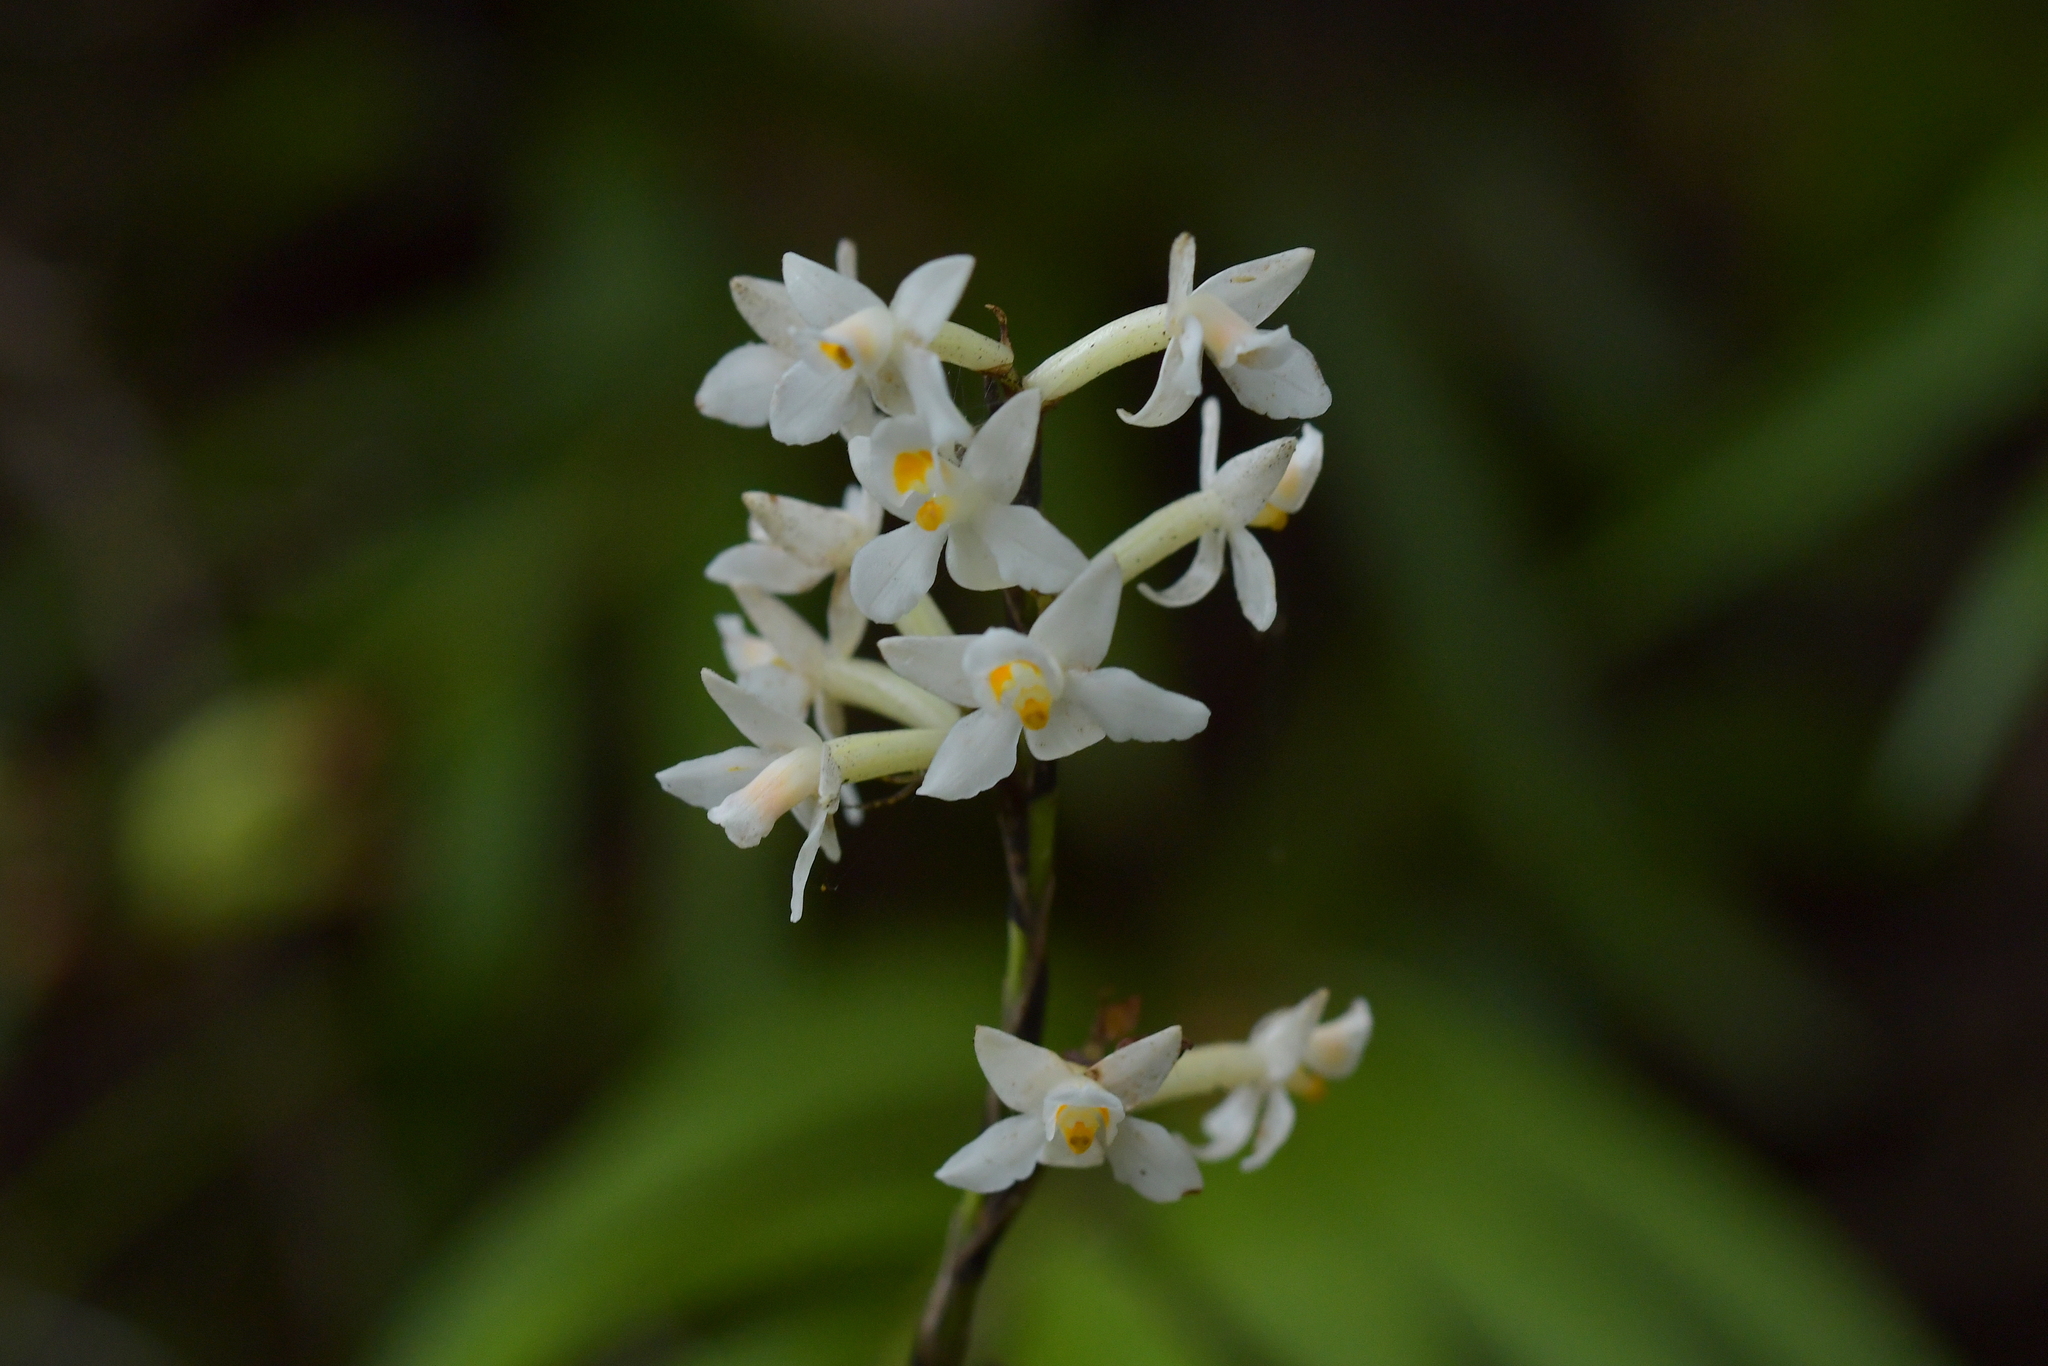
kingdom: Plantae
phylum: Tracheophyta
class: Liliopsida
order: Asparagales
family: Orchidaceae
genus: Earina
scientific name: Earina autumnalis
